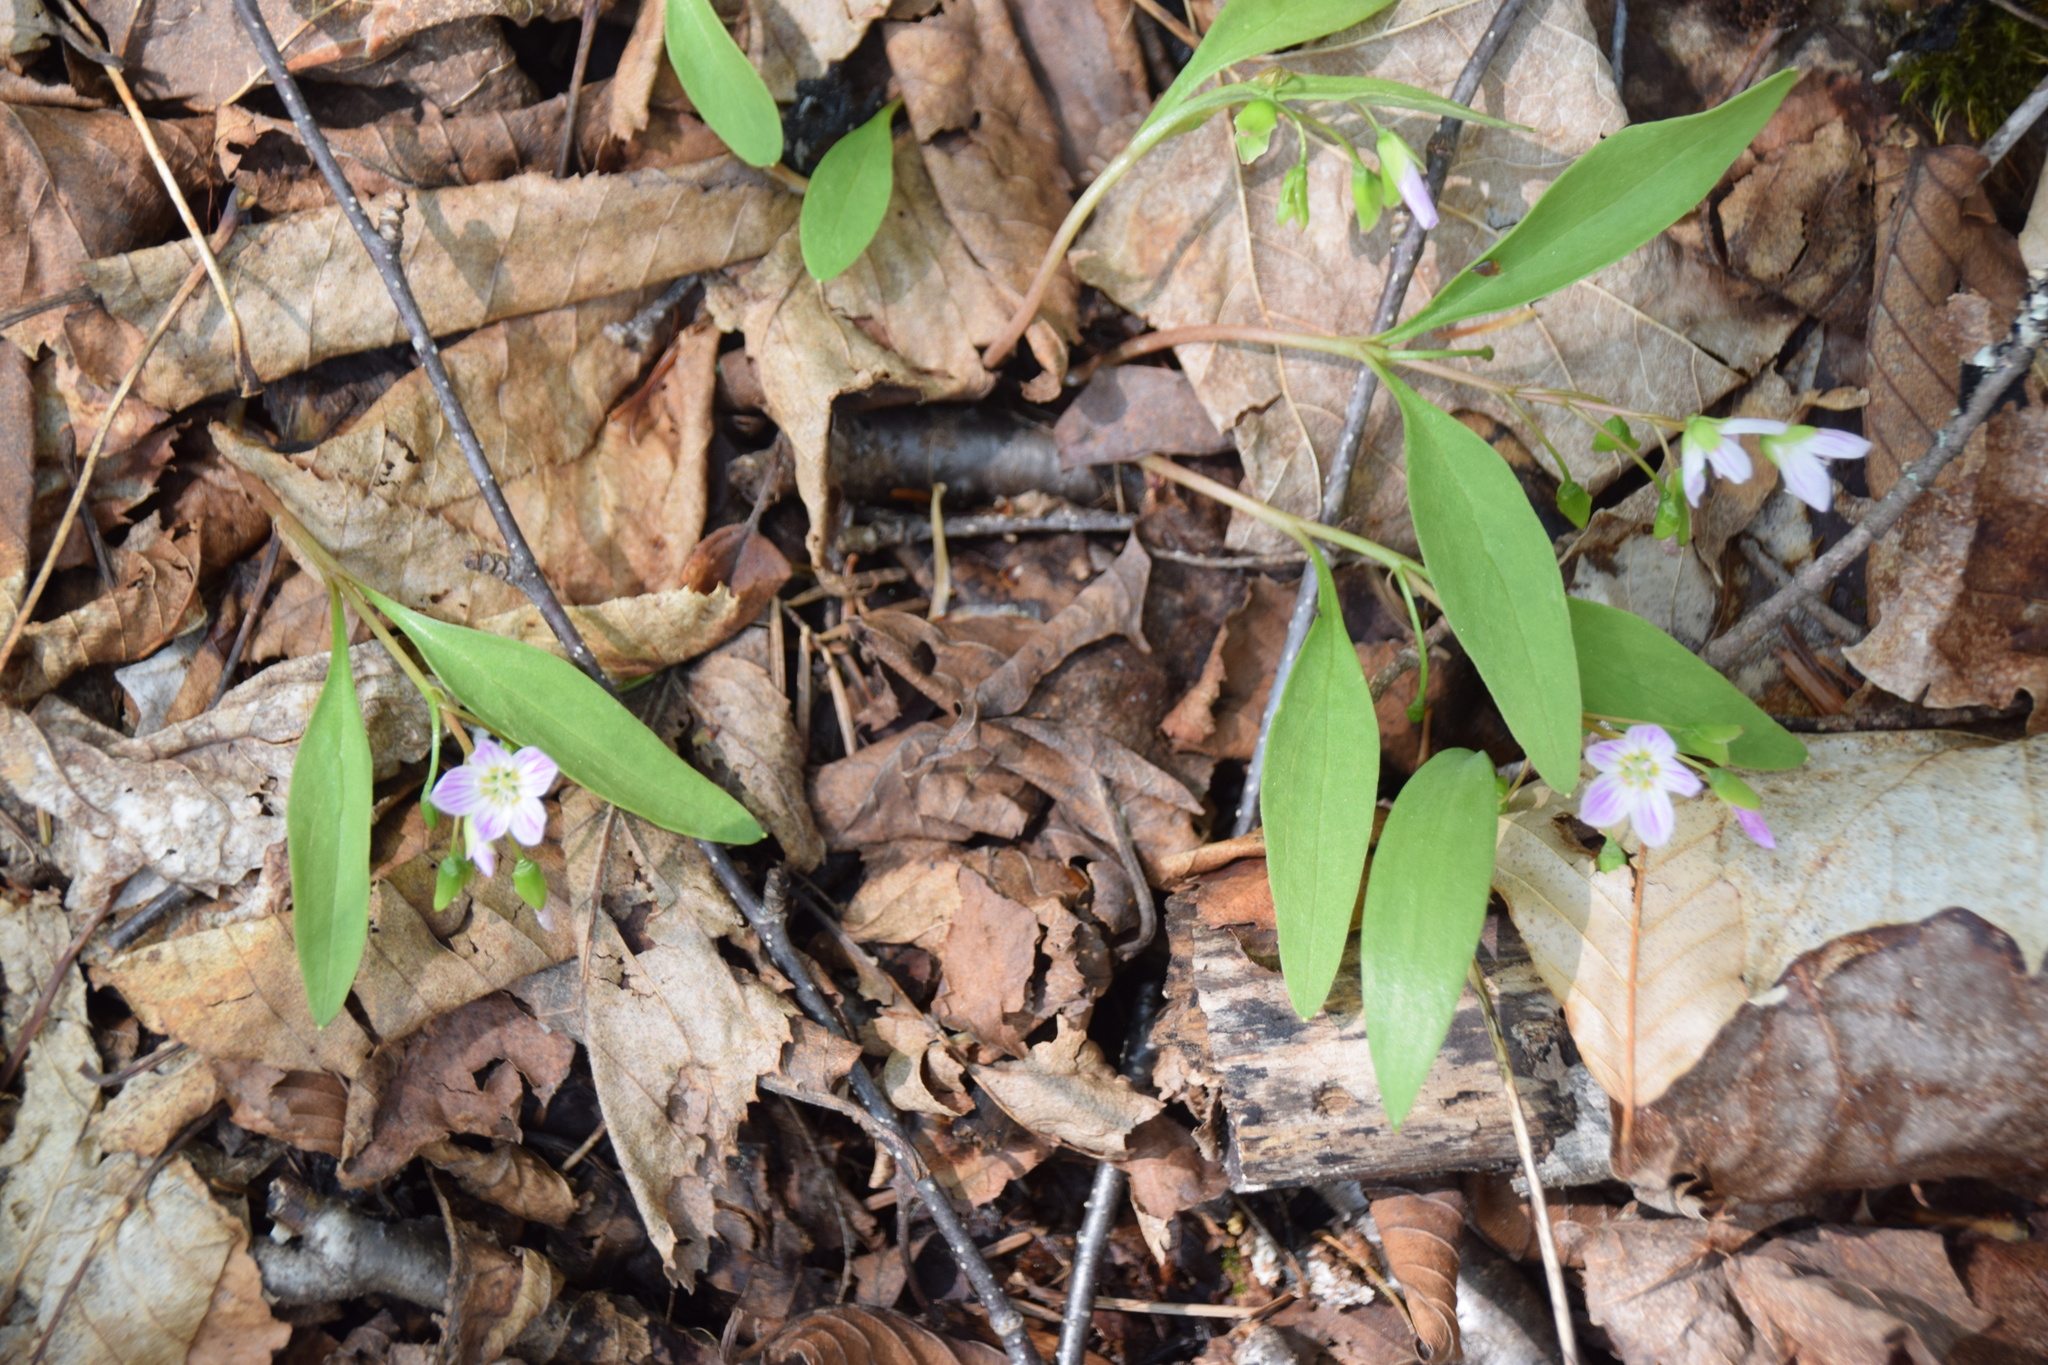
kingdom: Plantae
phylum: Tracheophyta
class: Magnoliopsida
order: Caryophyllales
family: Montiaceae
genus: Claytonia
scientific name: Claytonia caroliniana
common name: Carolina spring beauty
